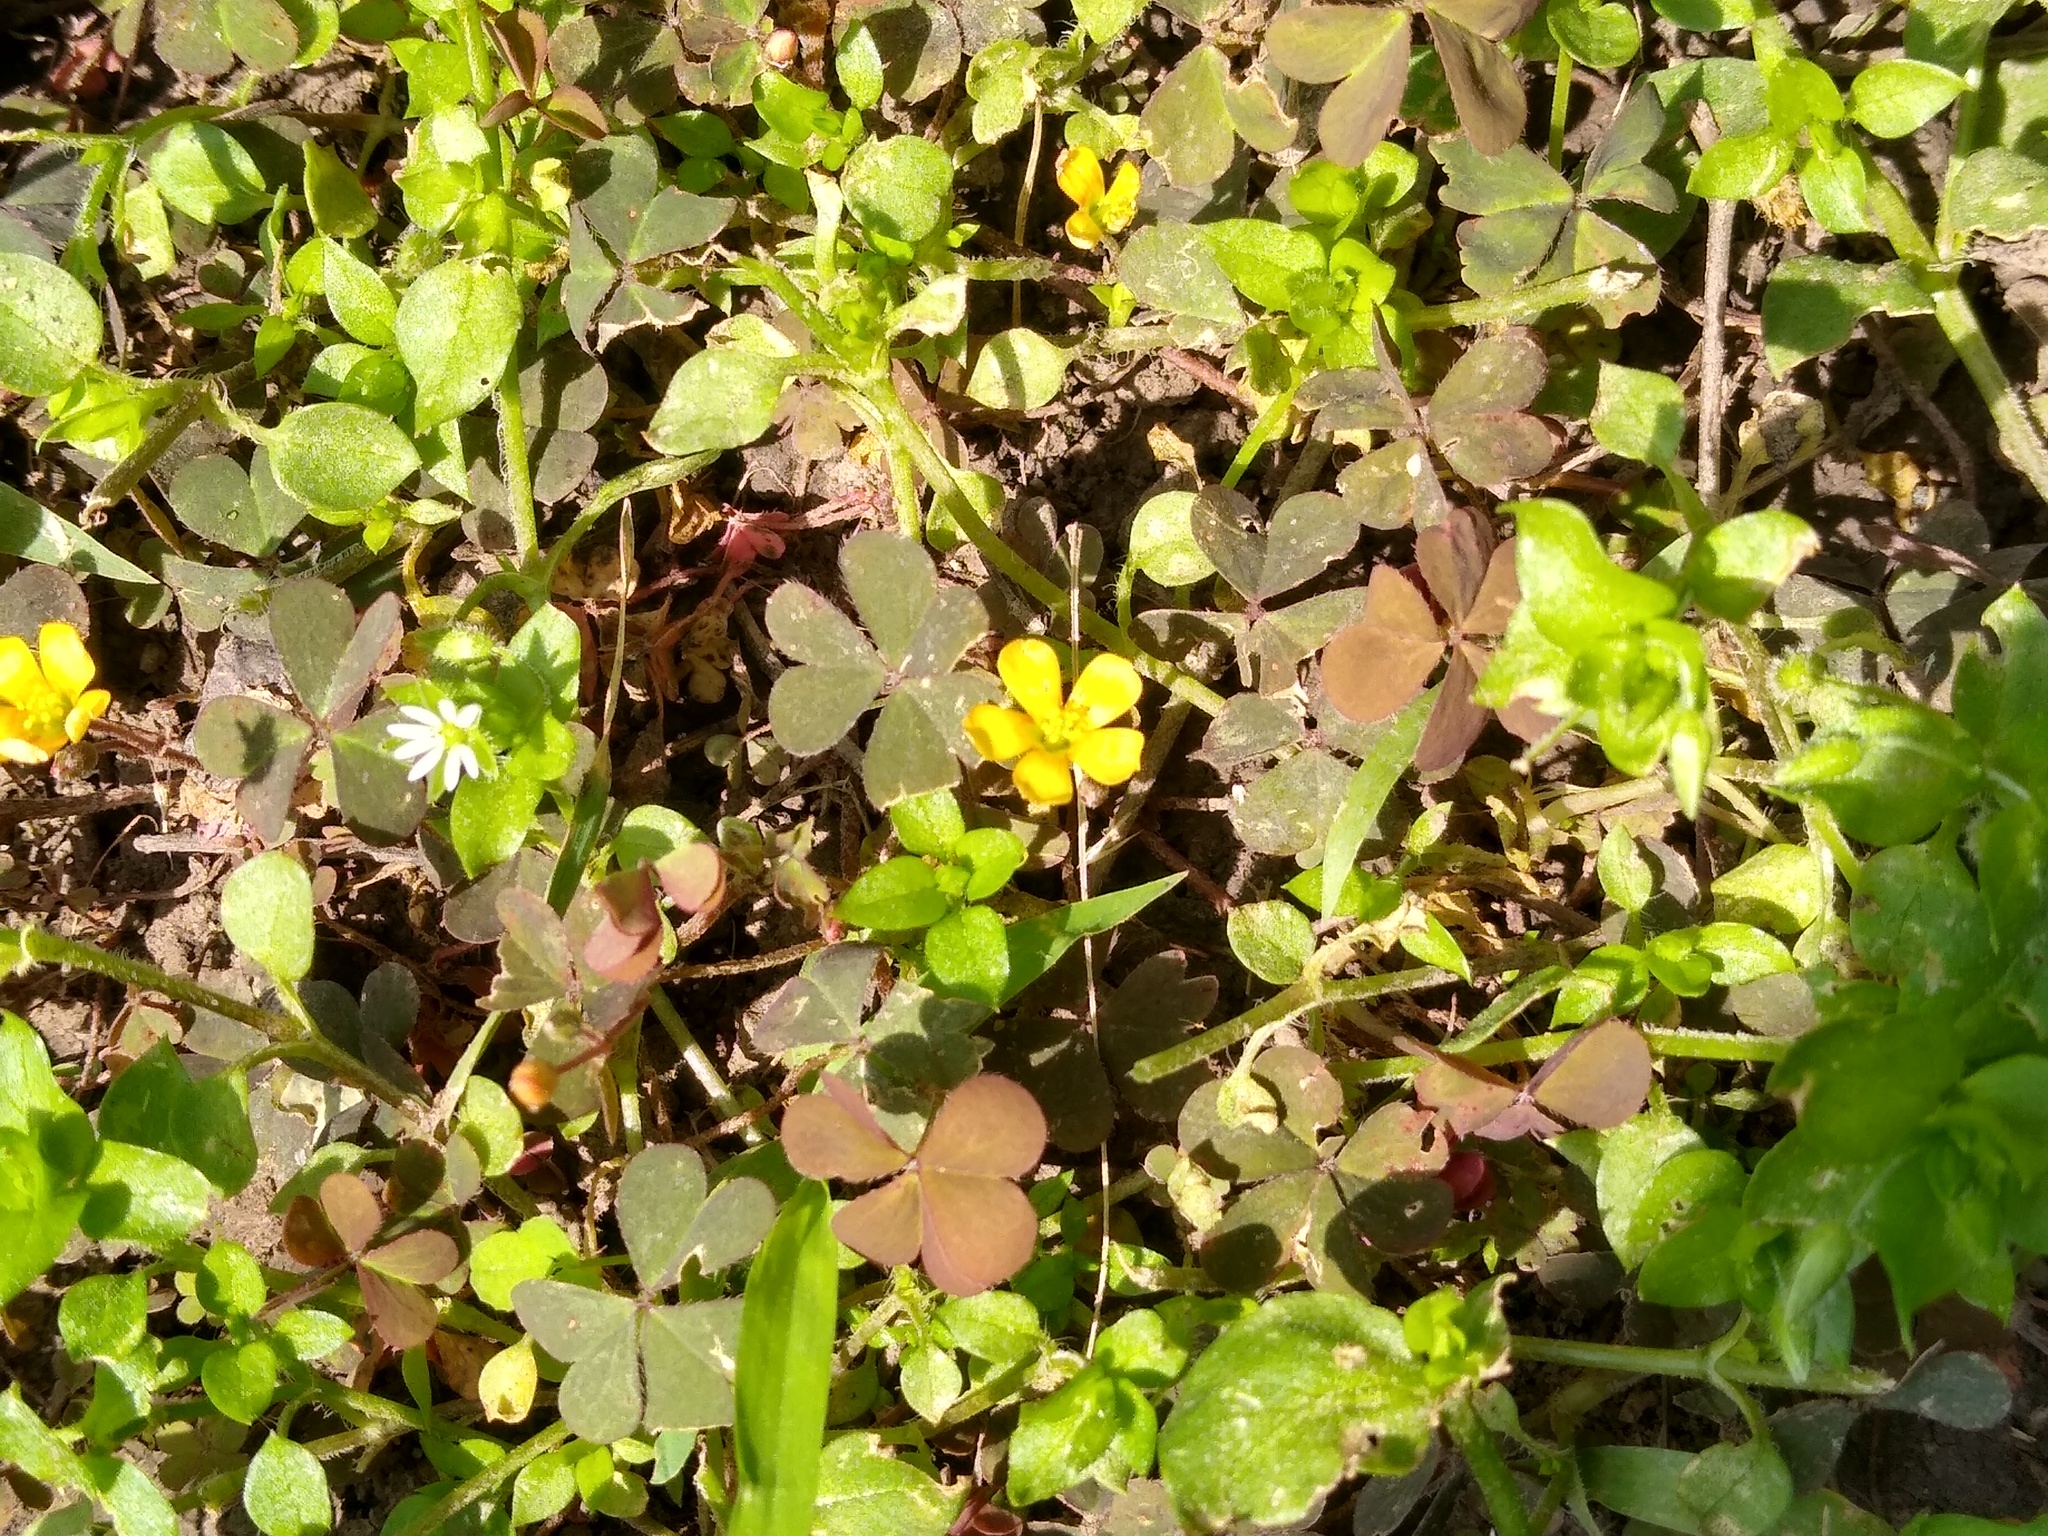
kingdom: Plantae
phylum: Tracheophyta
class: Magnoliopsida
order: Oxalidales
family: Oxalidaceae
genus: Oxalis
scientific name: Oxalis corniculata
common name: Procumbent yellow-sorrel
